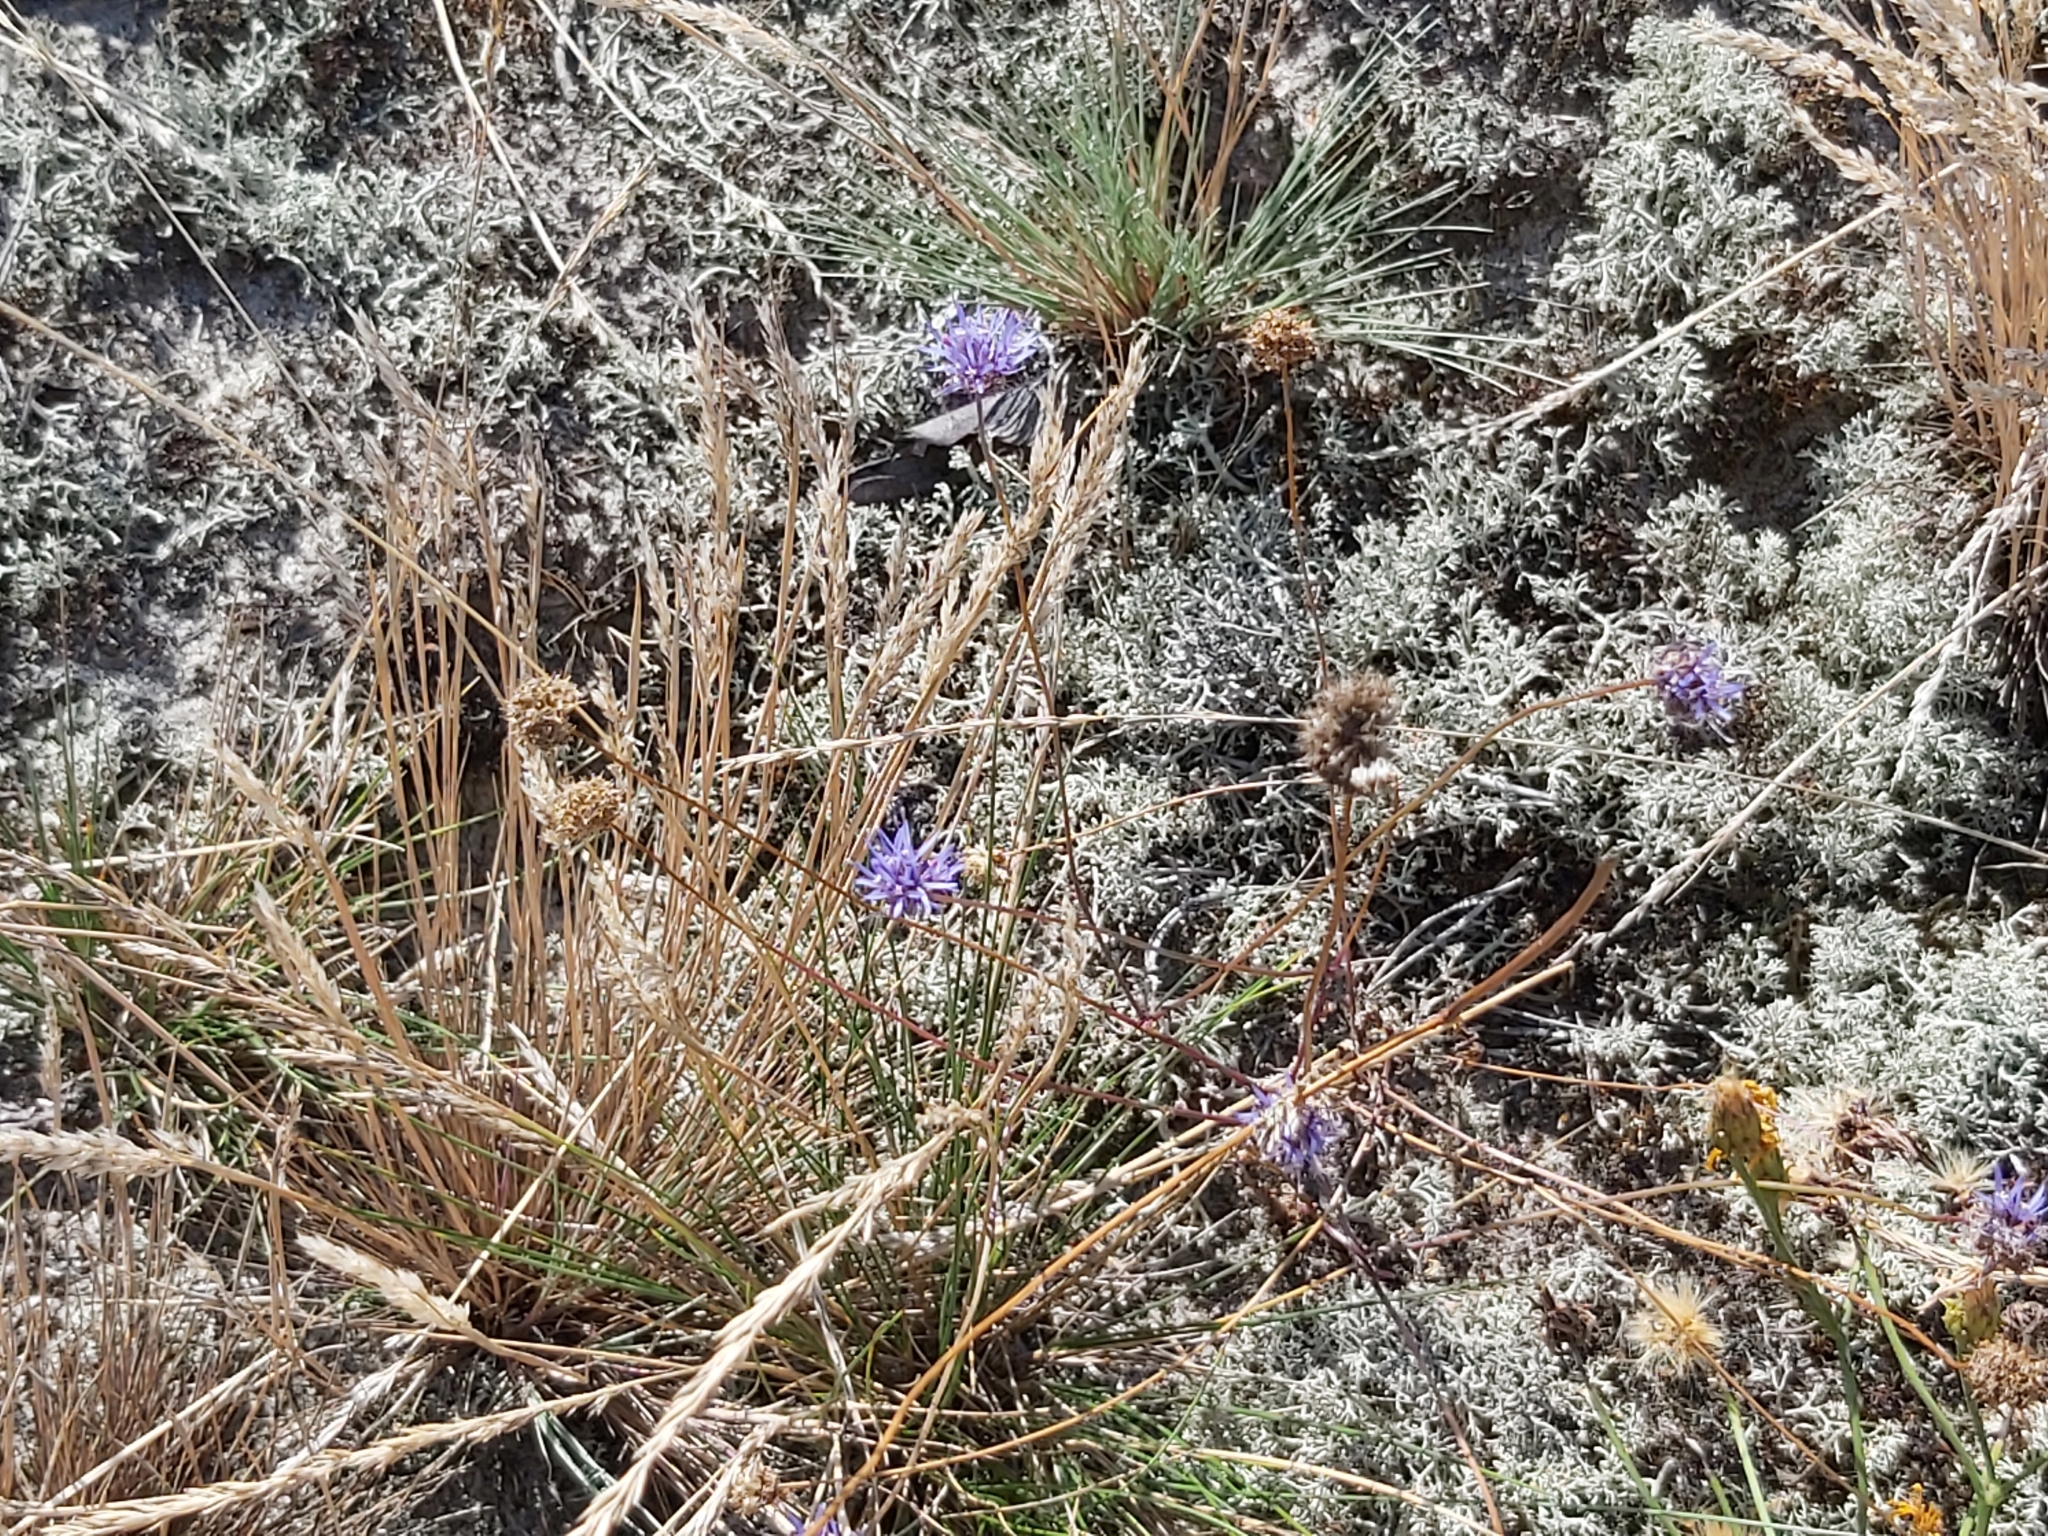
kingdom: Plantae
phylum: Tracheophyta
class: Magnoliopsida
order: Asterales
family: Campanulaceae
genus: Jasione
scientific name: Jasione montana
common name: Sheep's-bit
